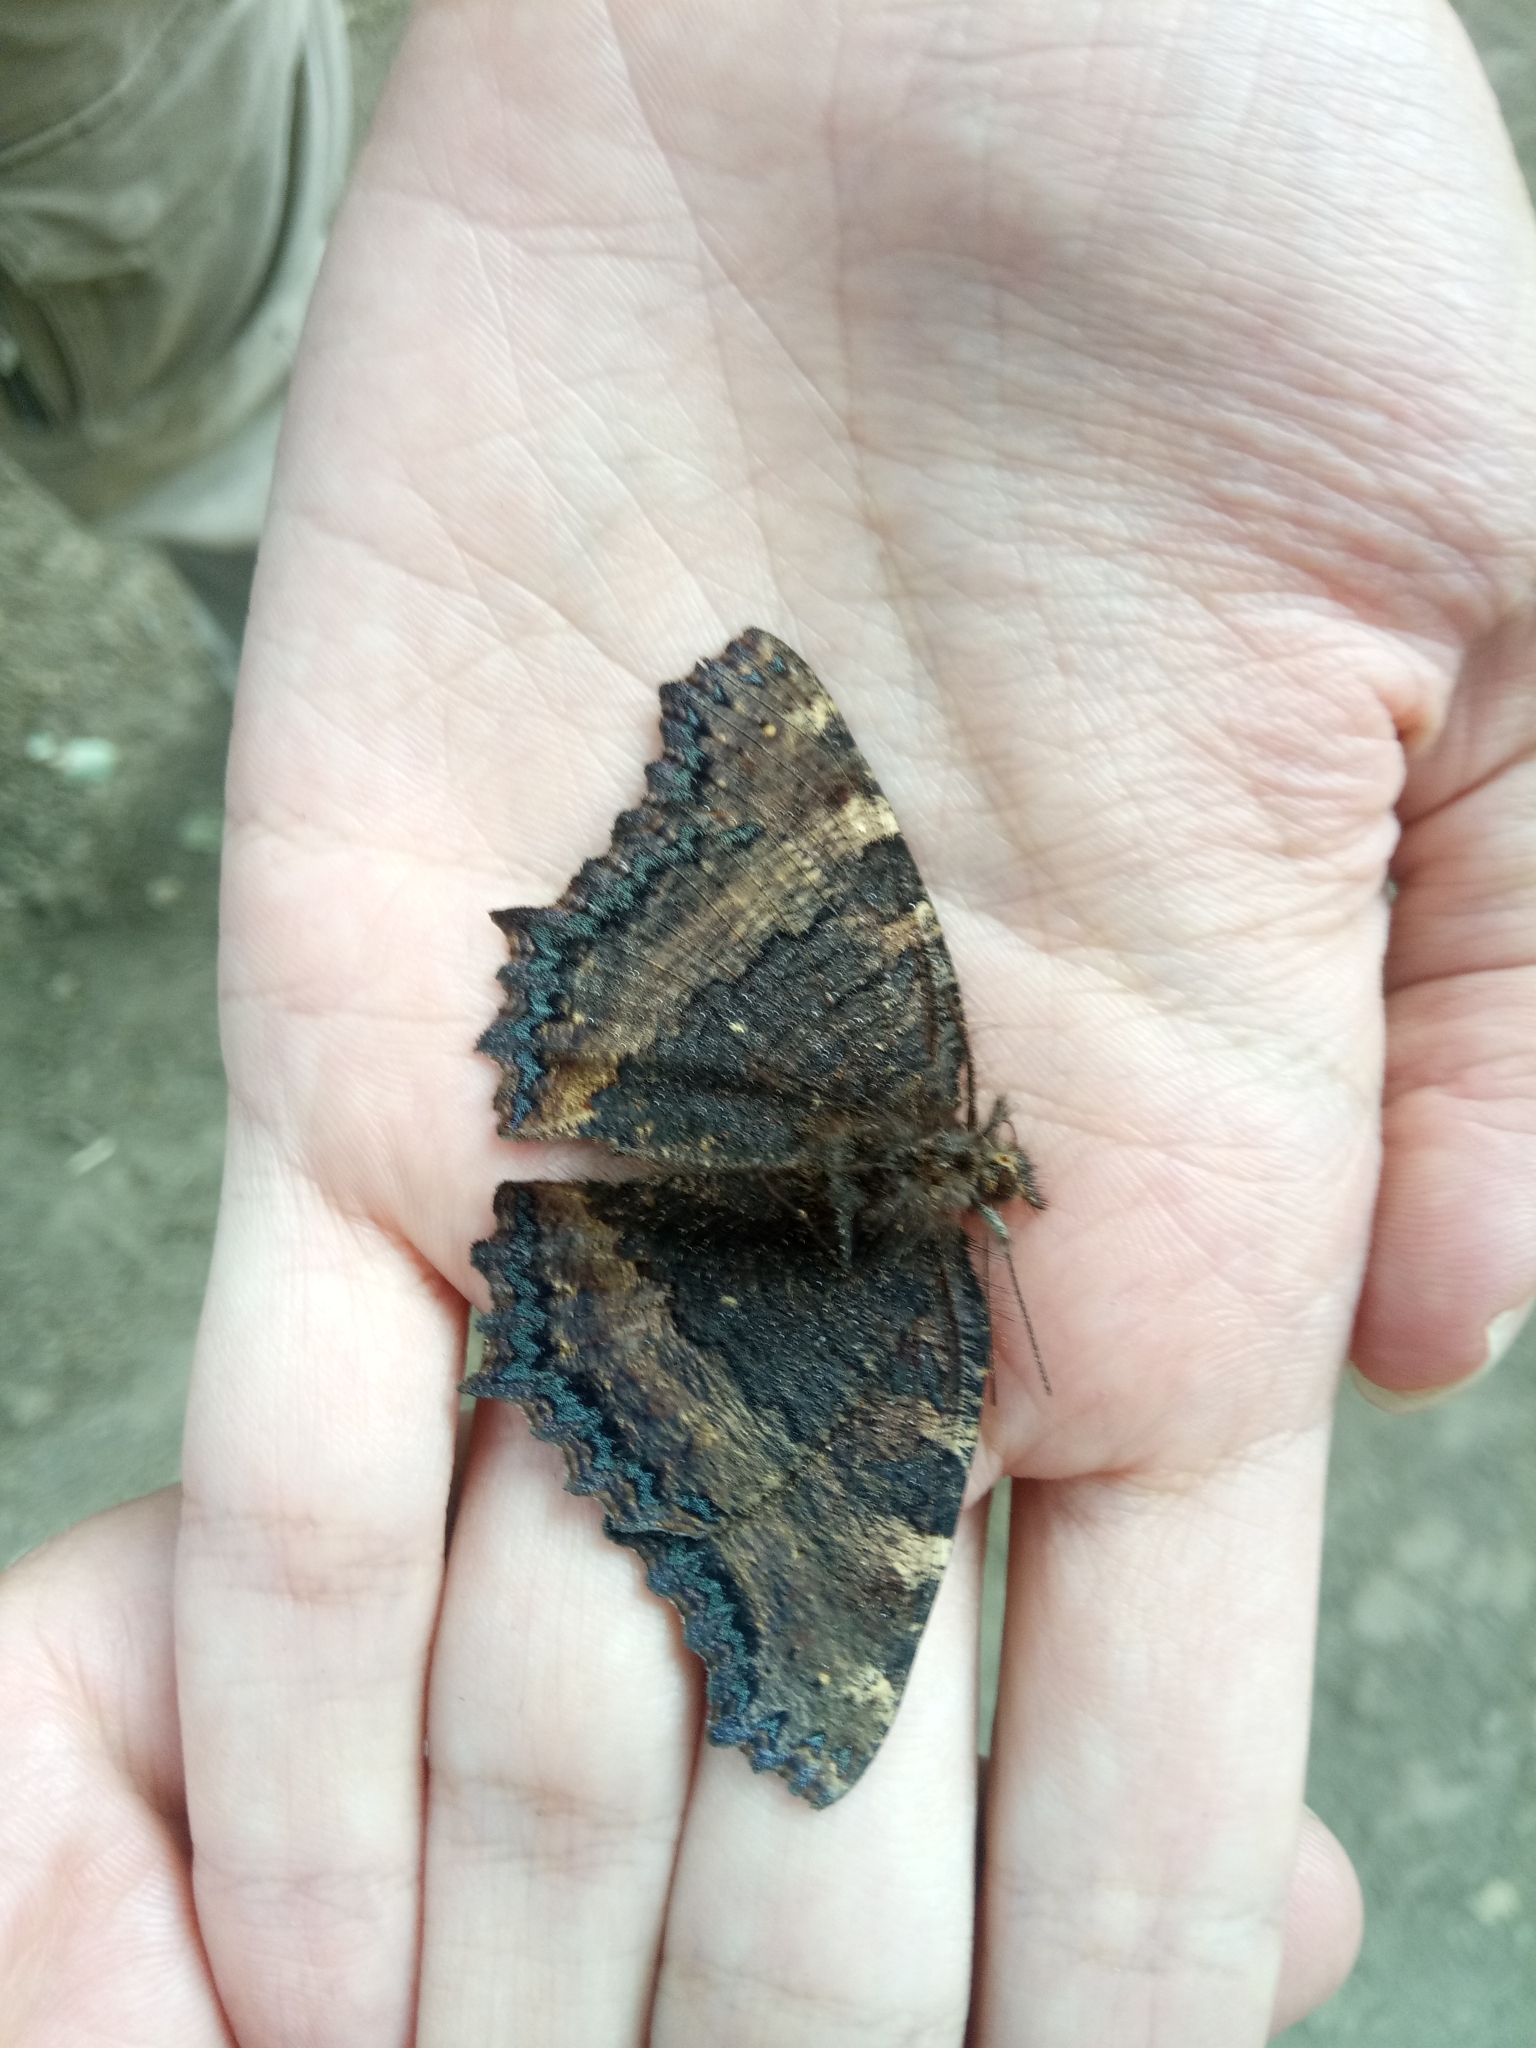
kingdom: Animalia
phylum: Arthropoda
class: Insecta
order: Lepidoptera
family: Nymphalidae
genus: Nymphalis
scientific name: Nymphalis polychloros
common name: Large tortoiseshell
